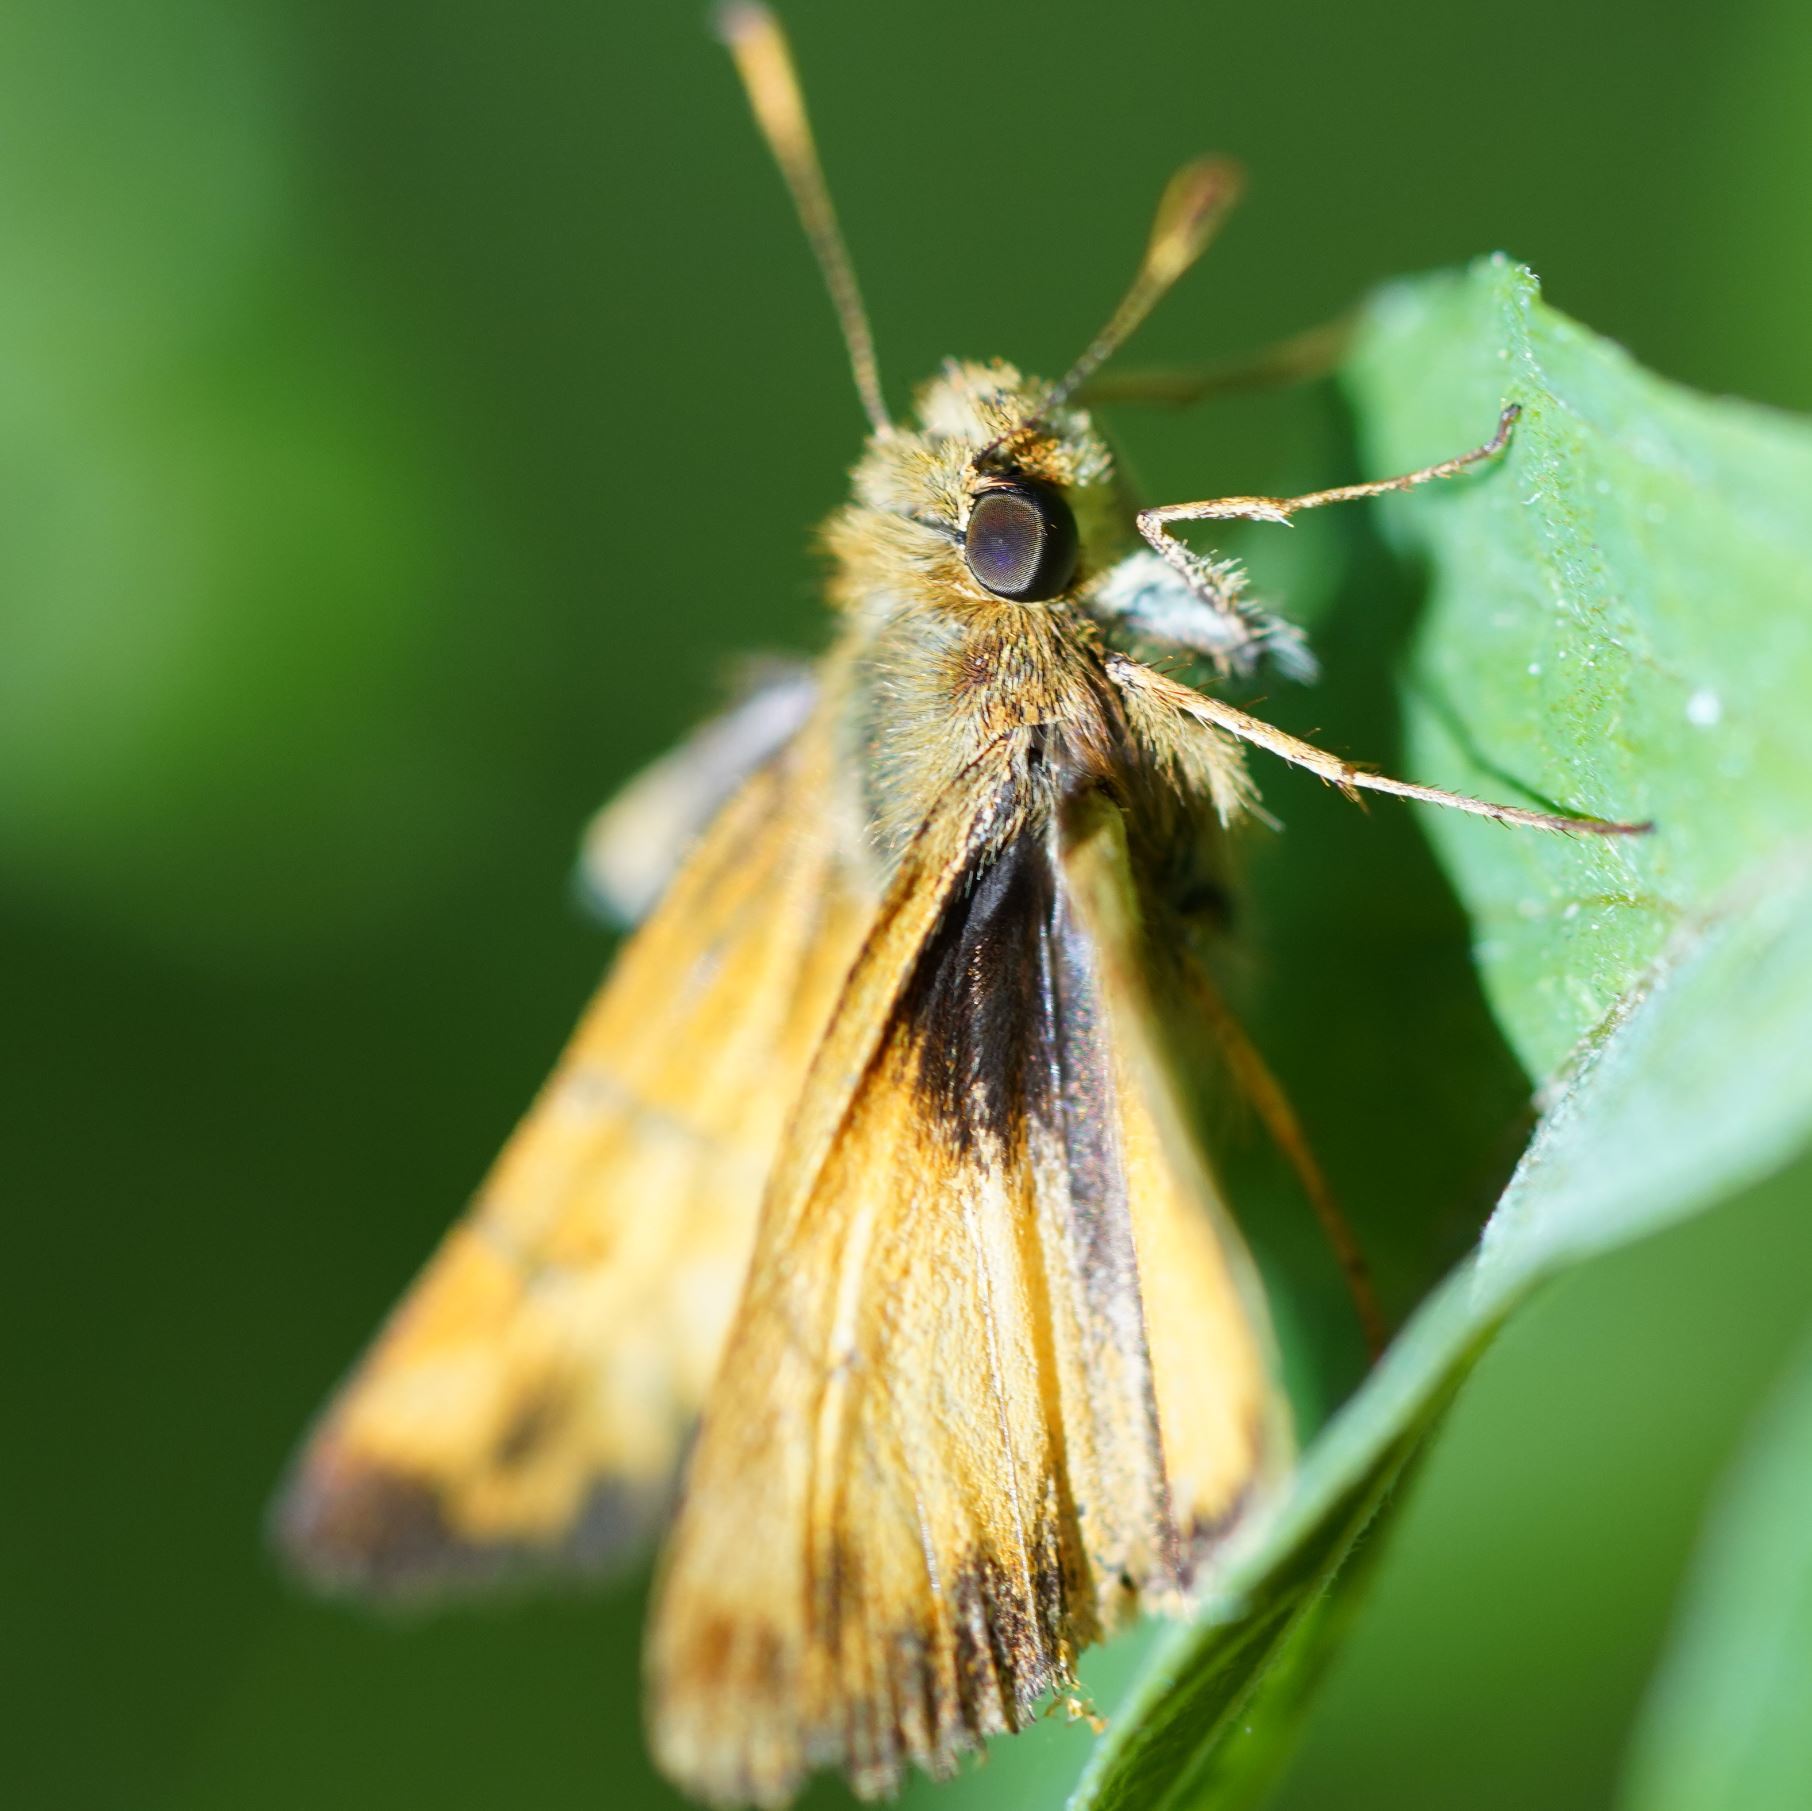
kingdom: Animalia
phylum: Arthropoda
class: Insecta
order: Lepidoptera
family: Hesperiidae
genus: Lon
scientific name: Lon zabulon
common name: Zabulon skipper
